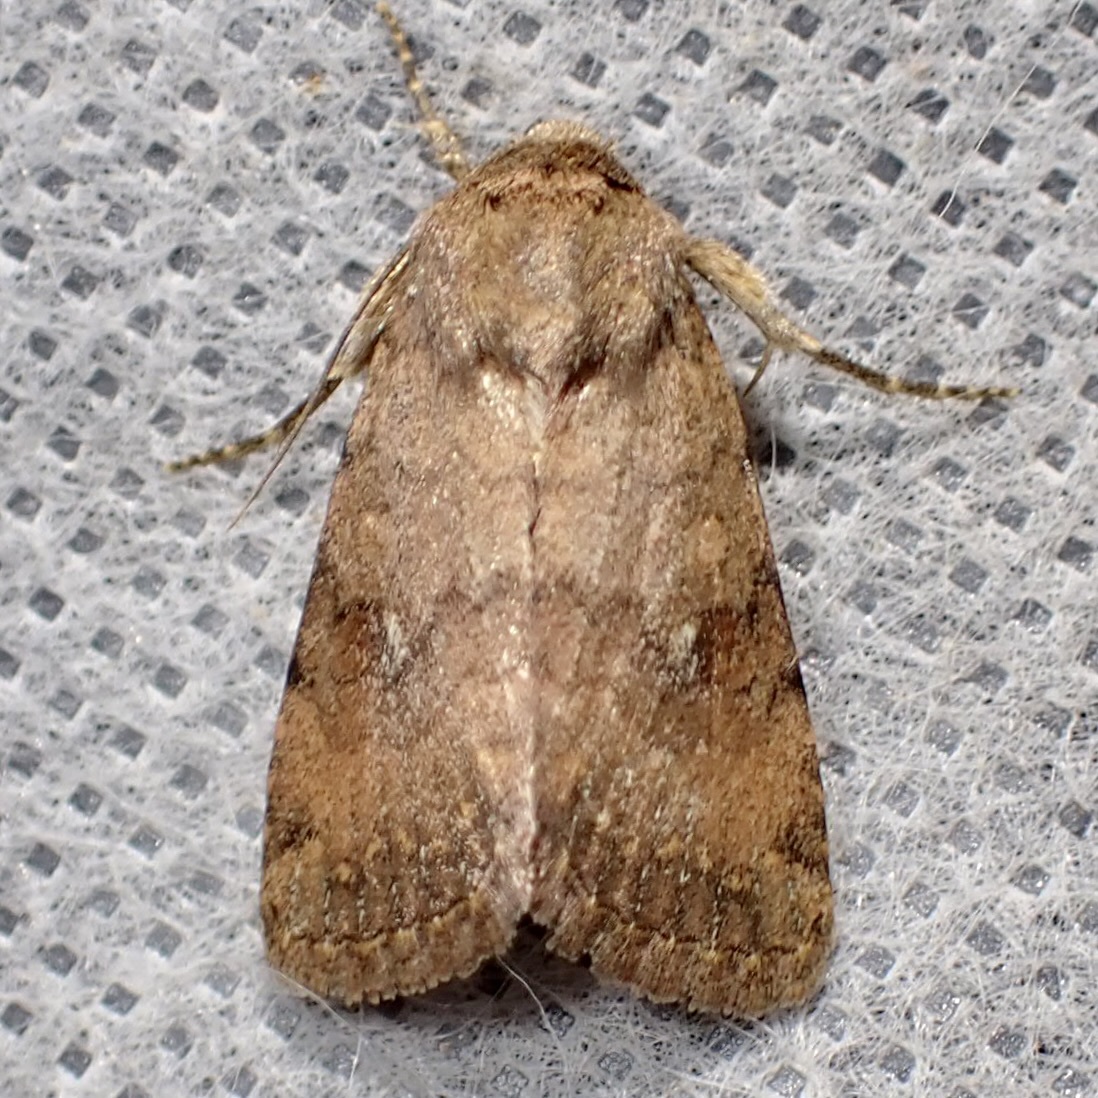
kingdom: Animalia
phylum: Arthropoda
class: Insecta
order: Lepidoptera
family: Noctuidae
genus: Nudorthodes
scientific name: Nudorthodes molino
